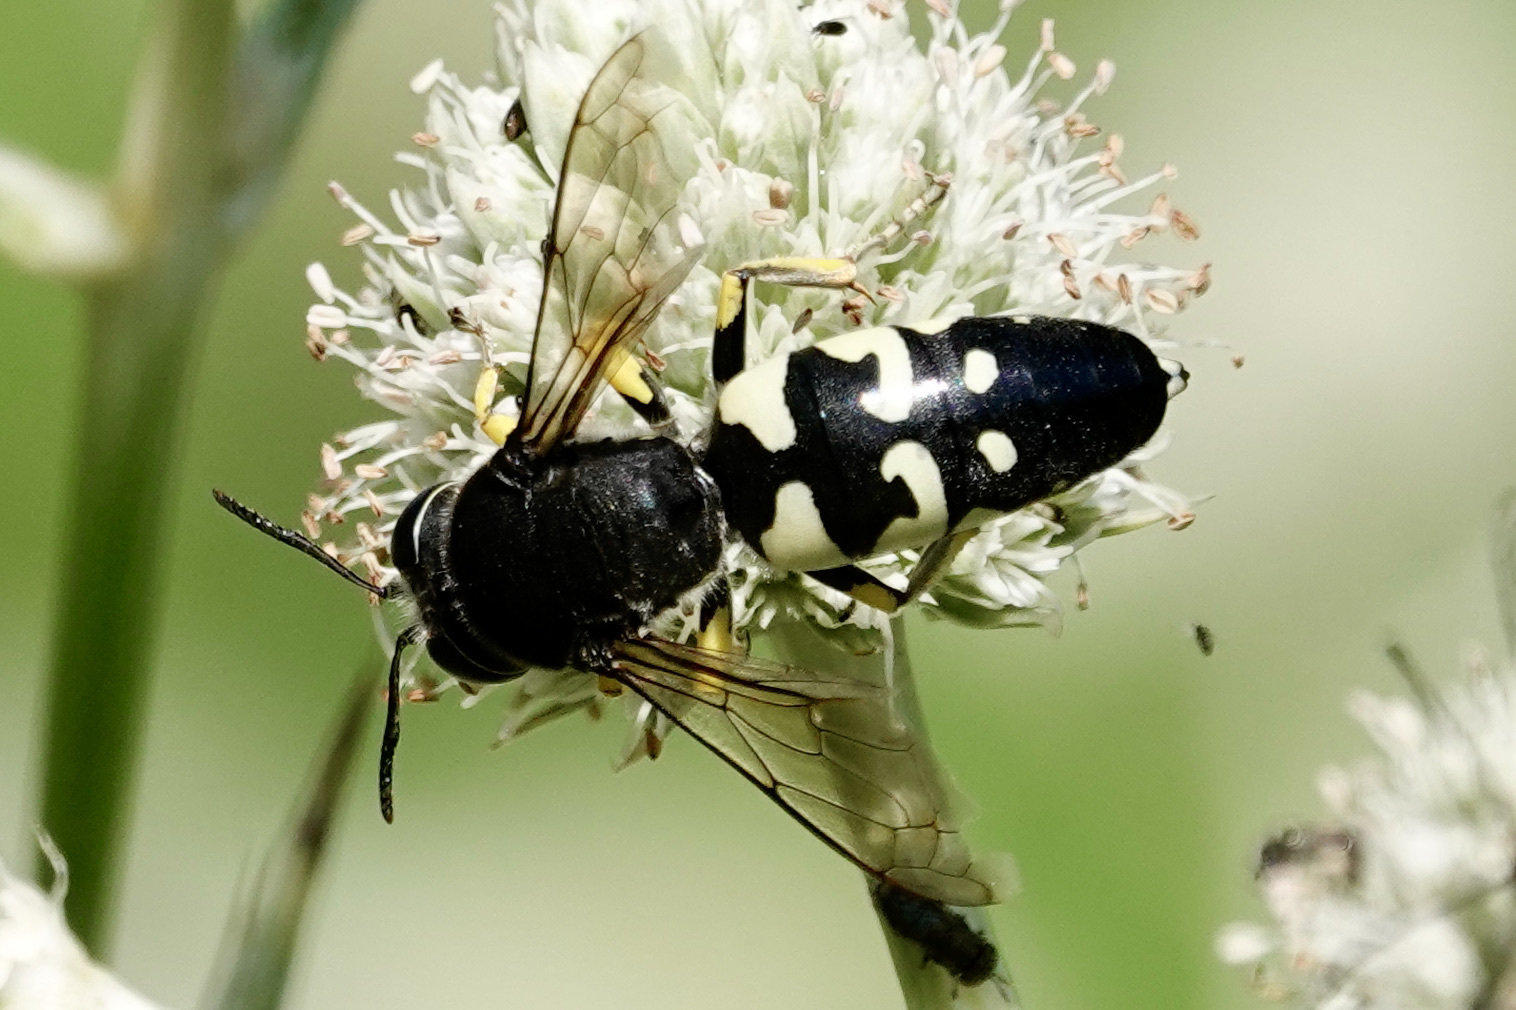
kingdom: Animalia
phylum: Arthropoda
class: Insecta
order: Hymenoptera
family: Crabronidae
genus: Stictia
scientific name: Stictia carolina
